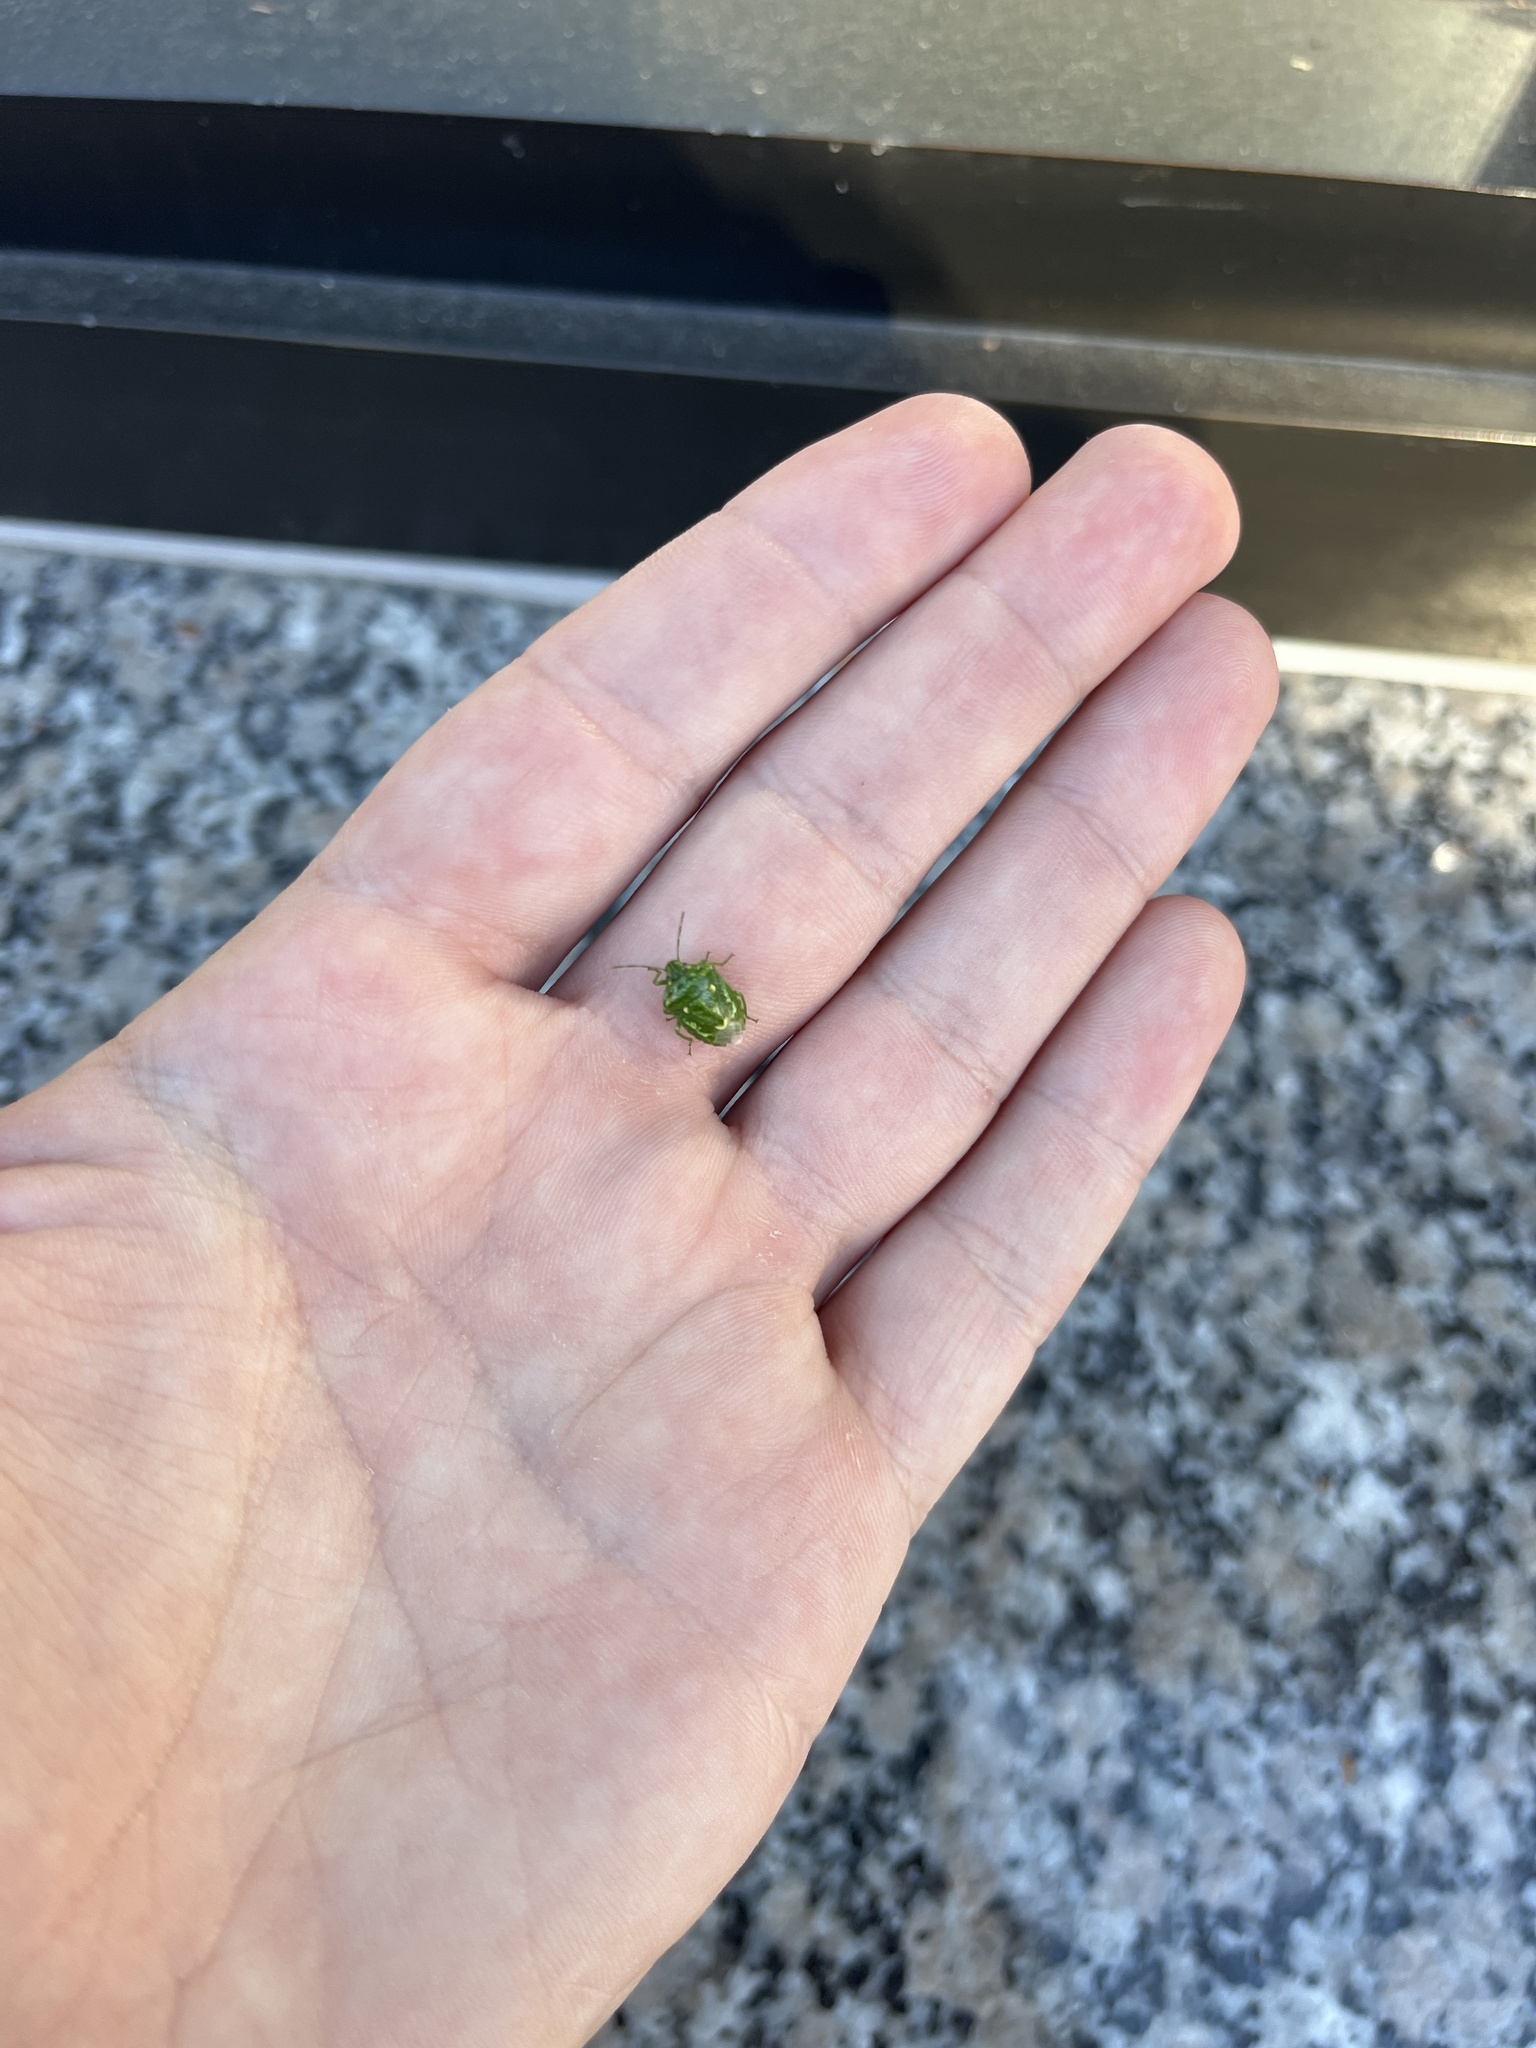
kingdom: Animalia
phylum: Arthropoda
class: Insecta
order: Hemiptera
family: Pentatomidae
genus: Banasa
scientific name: Banasa euchlora
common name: Cedar berry bug
